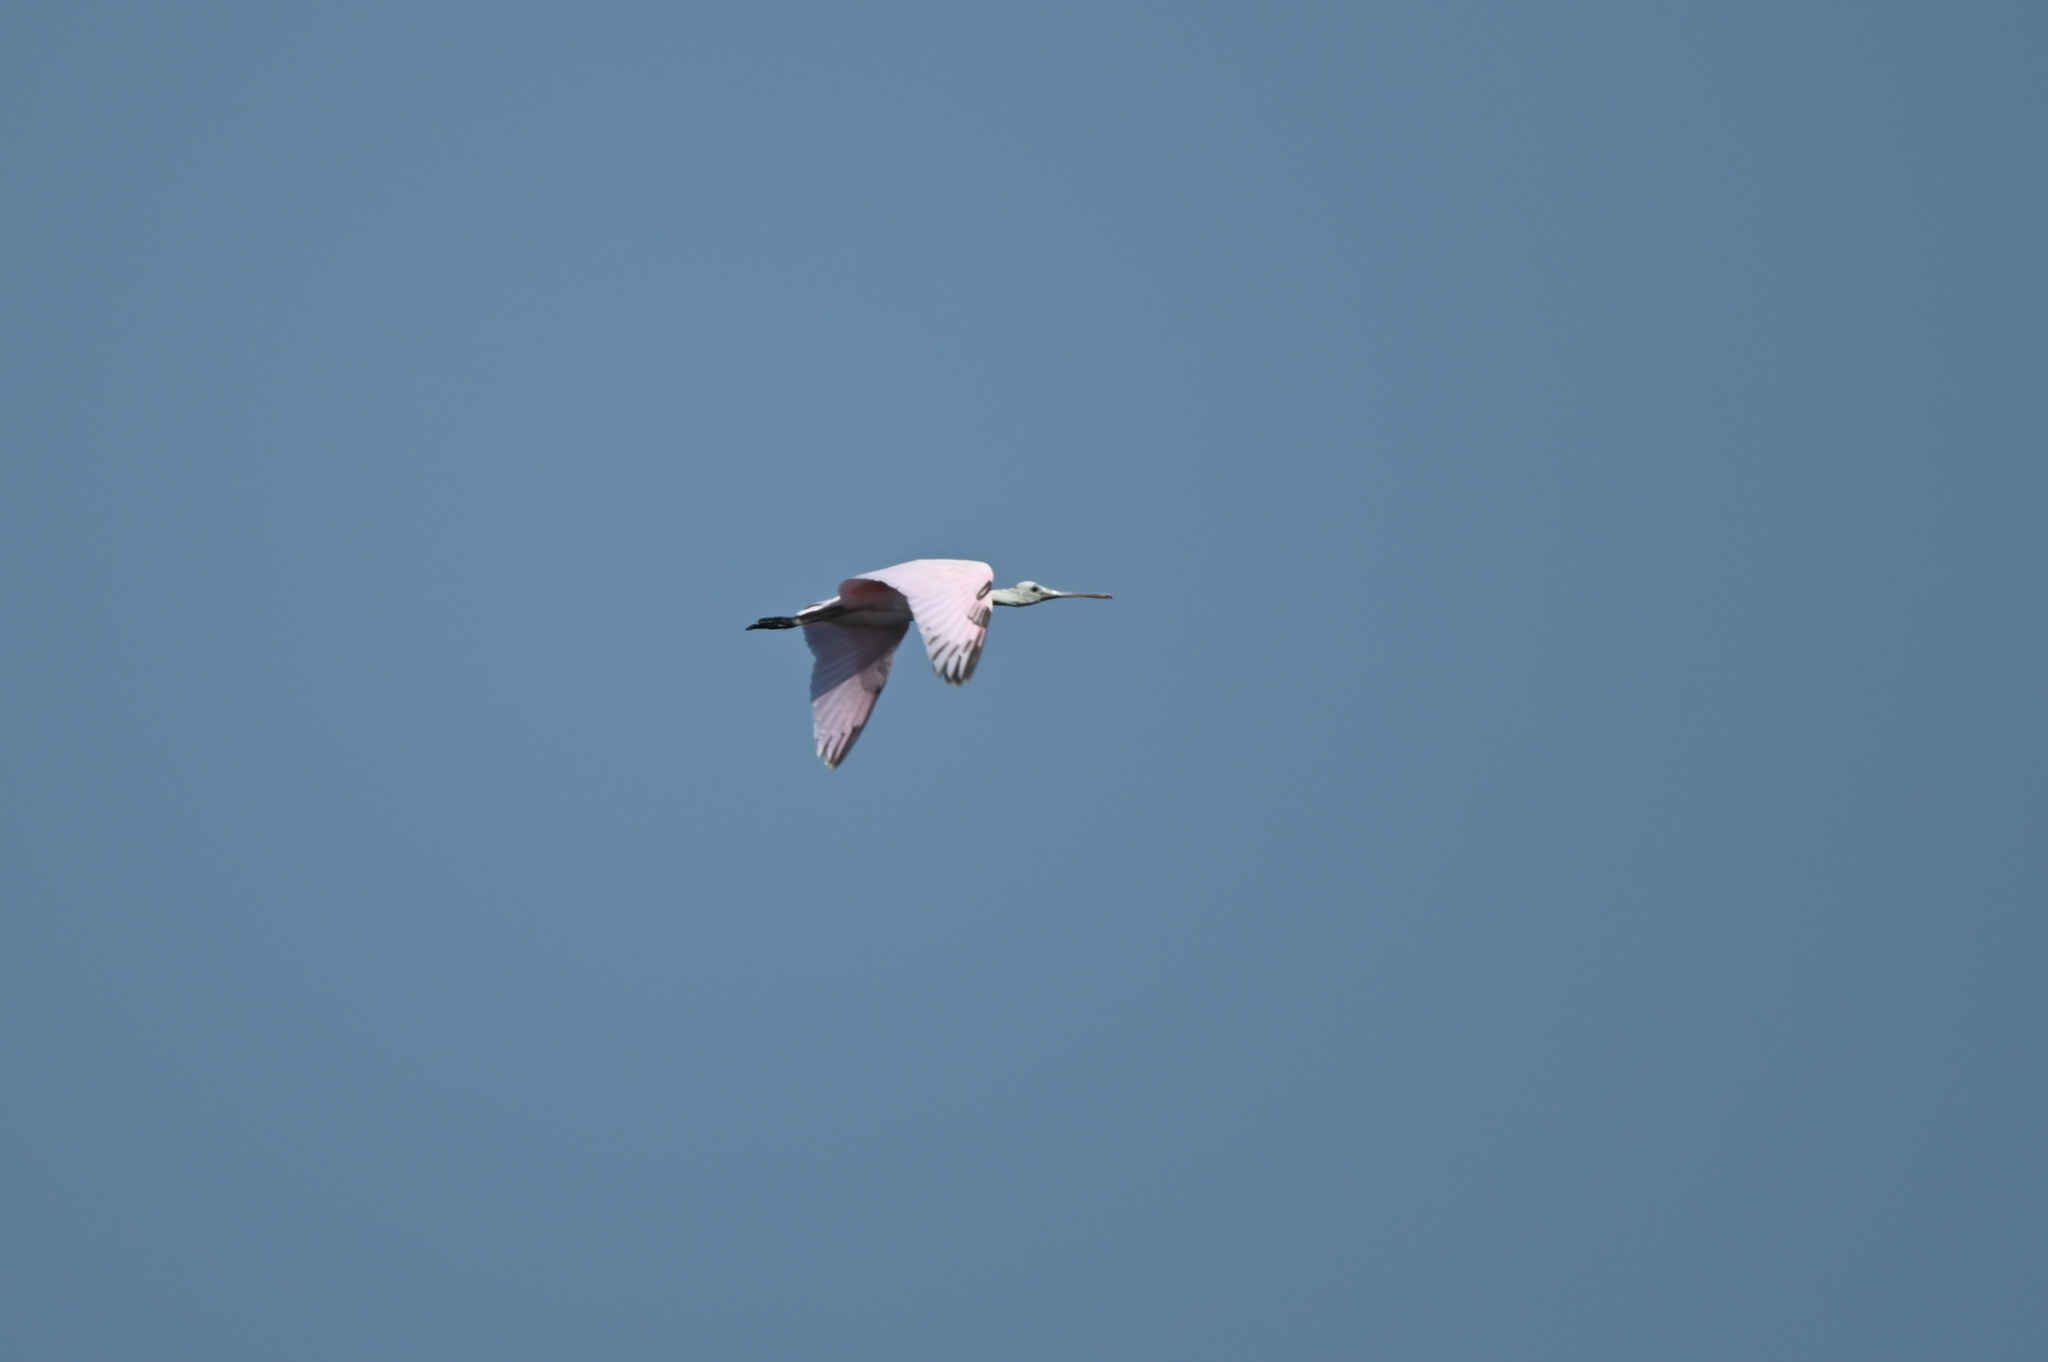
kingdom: Animalia
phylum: Chordata
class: Aves
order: Pelecaniformes
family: Threskiornithidae
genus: Platalea
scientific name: Platalea ajaja
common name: Roseate spoonbill
